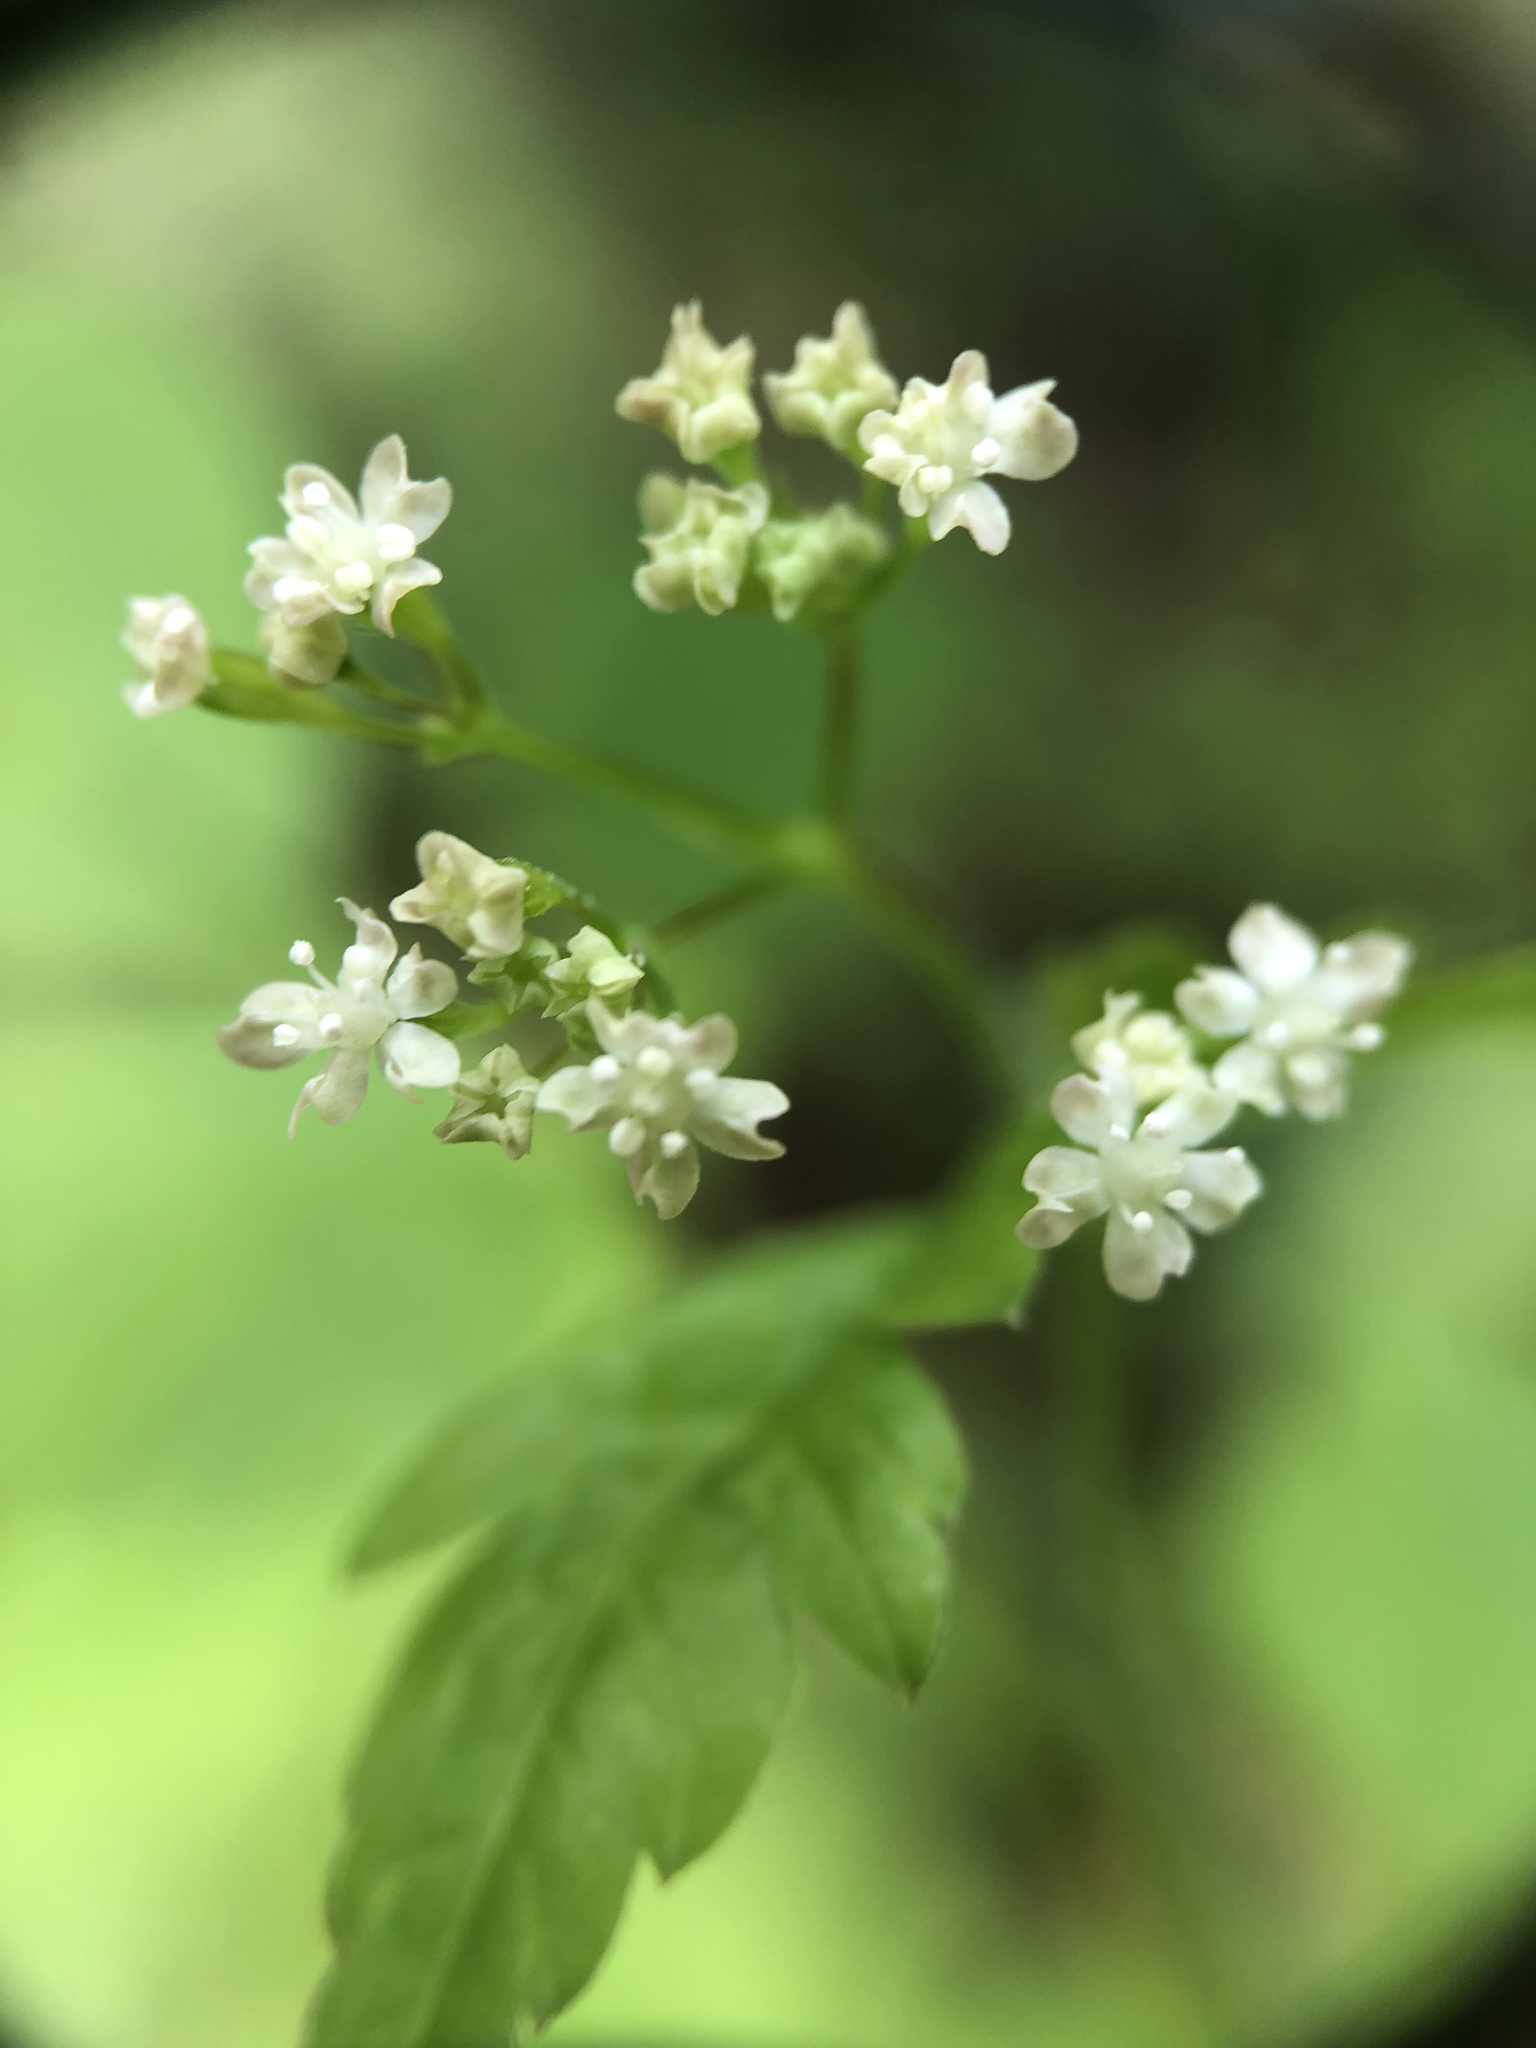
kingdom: Plantae
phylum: Tracheophyta
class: Magnoliopsida
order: Apiales
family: Apiaceae
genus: Osmorhiza
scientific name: Osmorhiza claytonii
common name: Hairy sweet cicely
